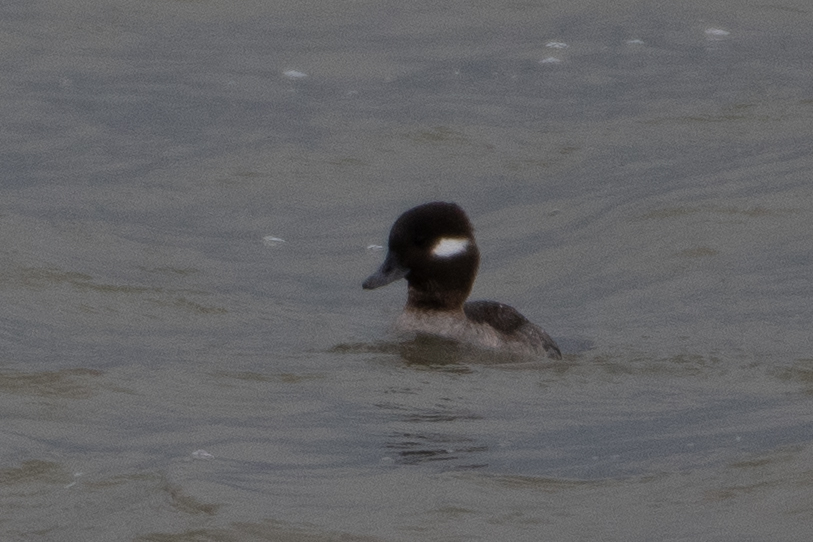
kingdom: Animalia
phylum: Chordata
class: Aves
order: Anseriformes
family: Anatidae
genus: Bucephala
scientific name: Bucephala albeola
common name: Bufflehead
